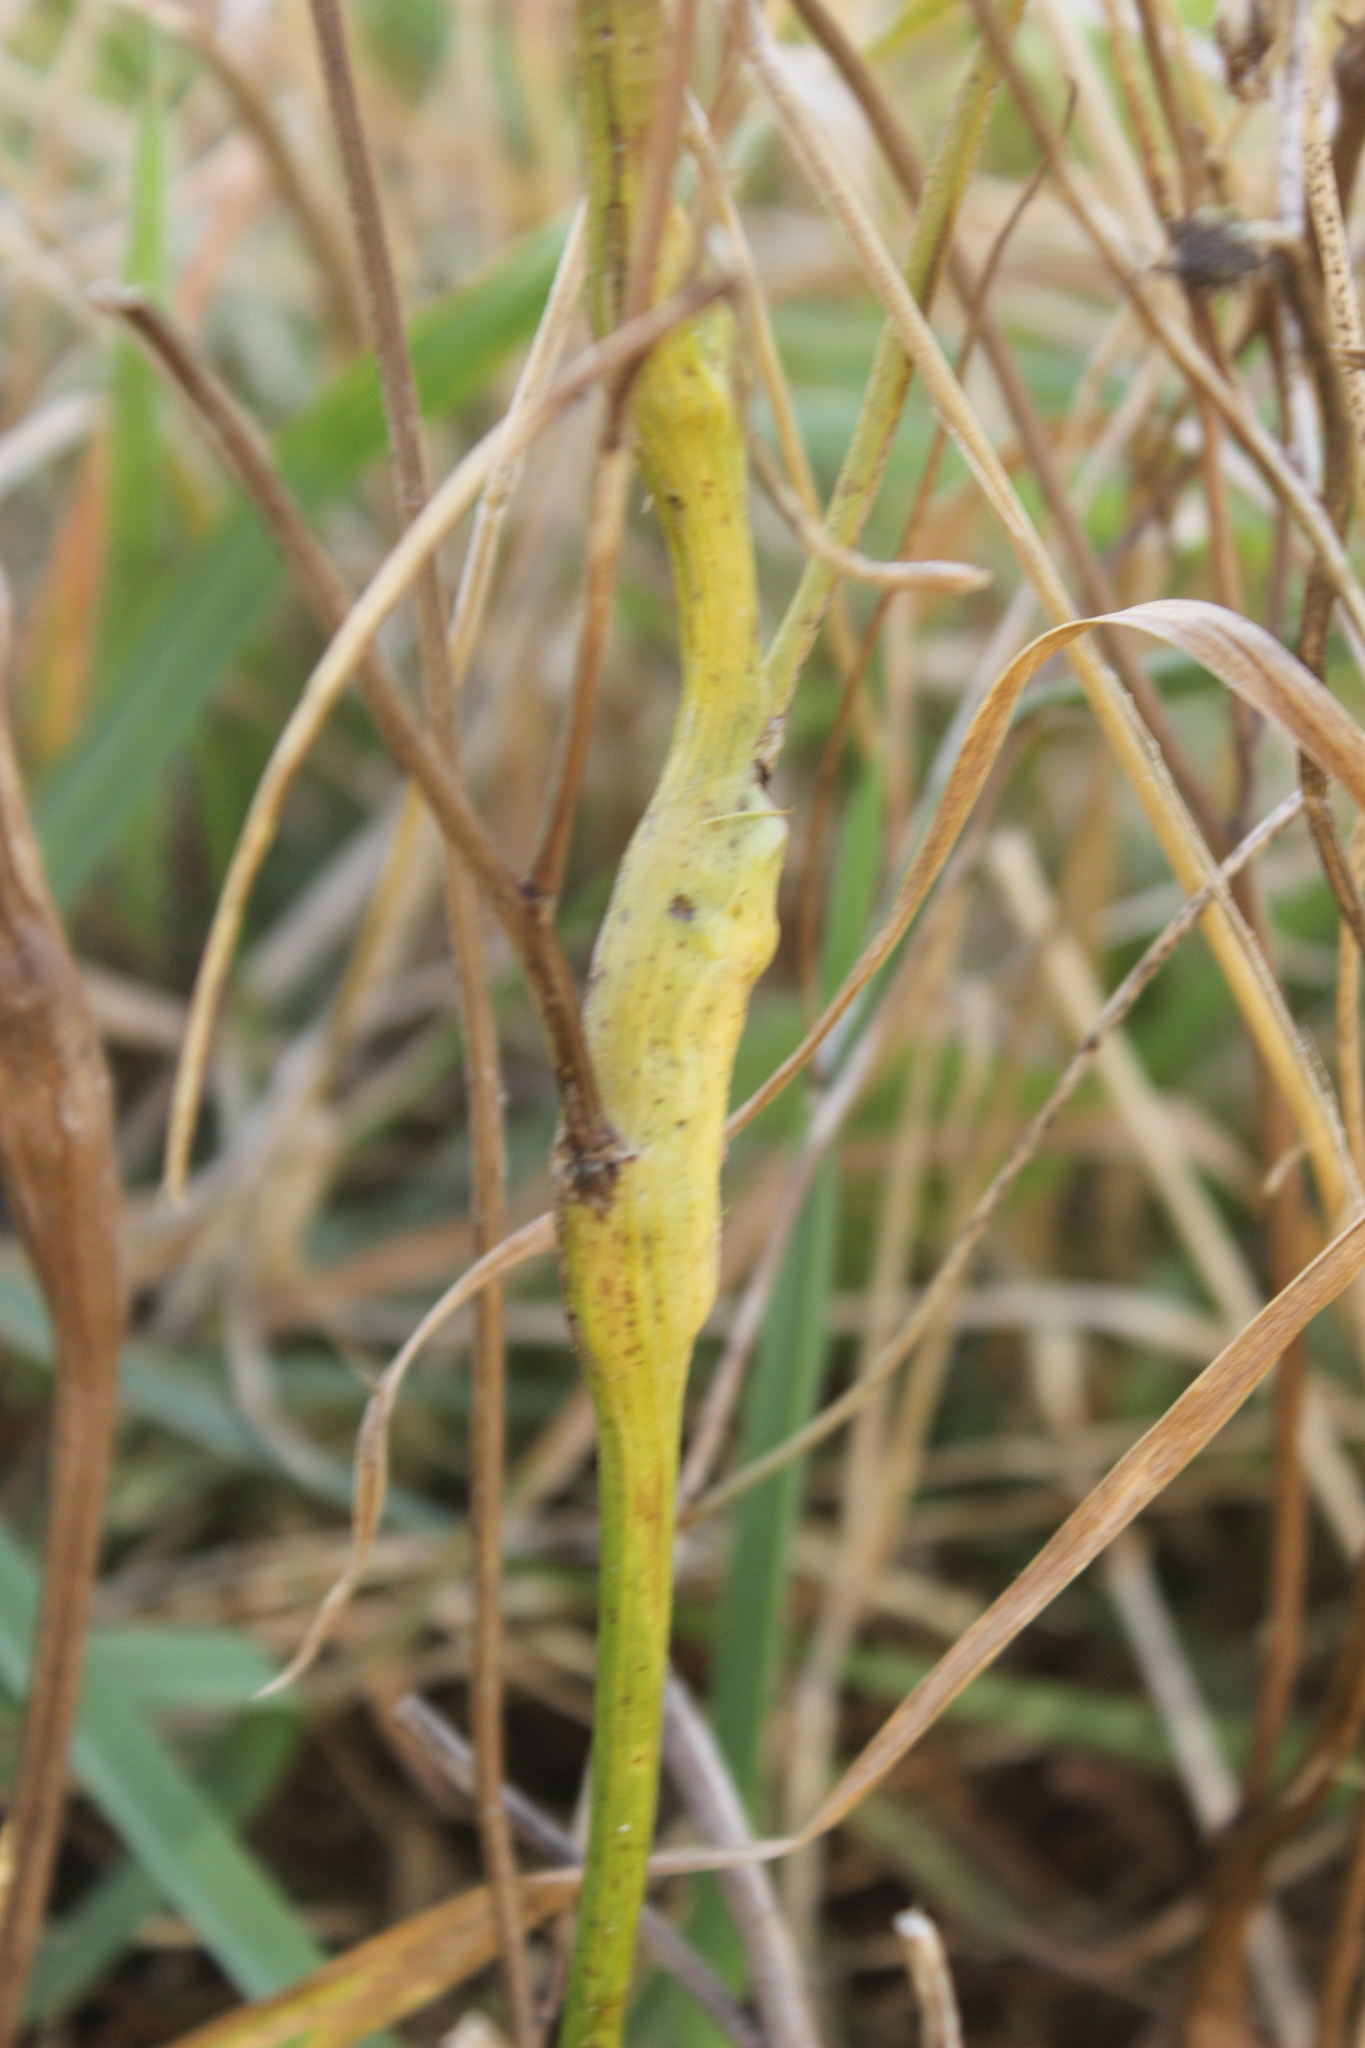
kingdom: Animalia
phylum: Arthropoda
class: Insecta
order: Hymenoptera
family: Cynipidae
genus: Phanacis
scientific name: Phanacis hypochoeridis
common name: Gall wasp
